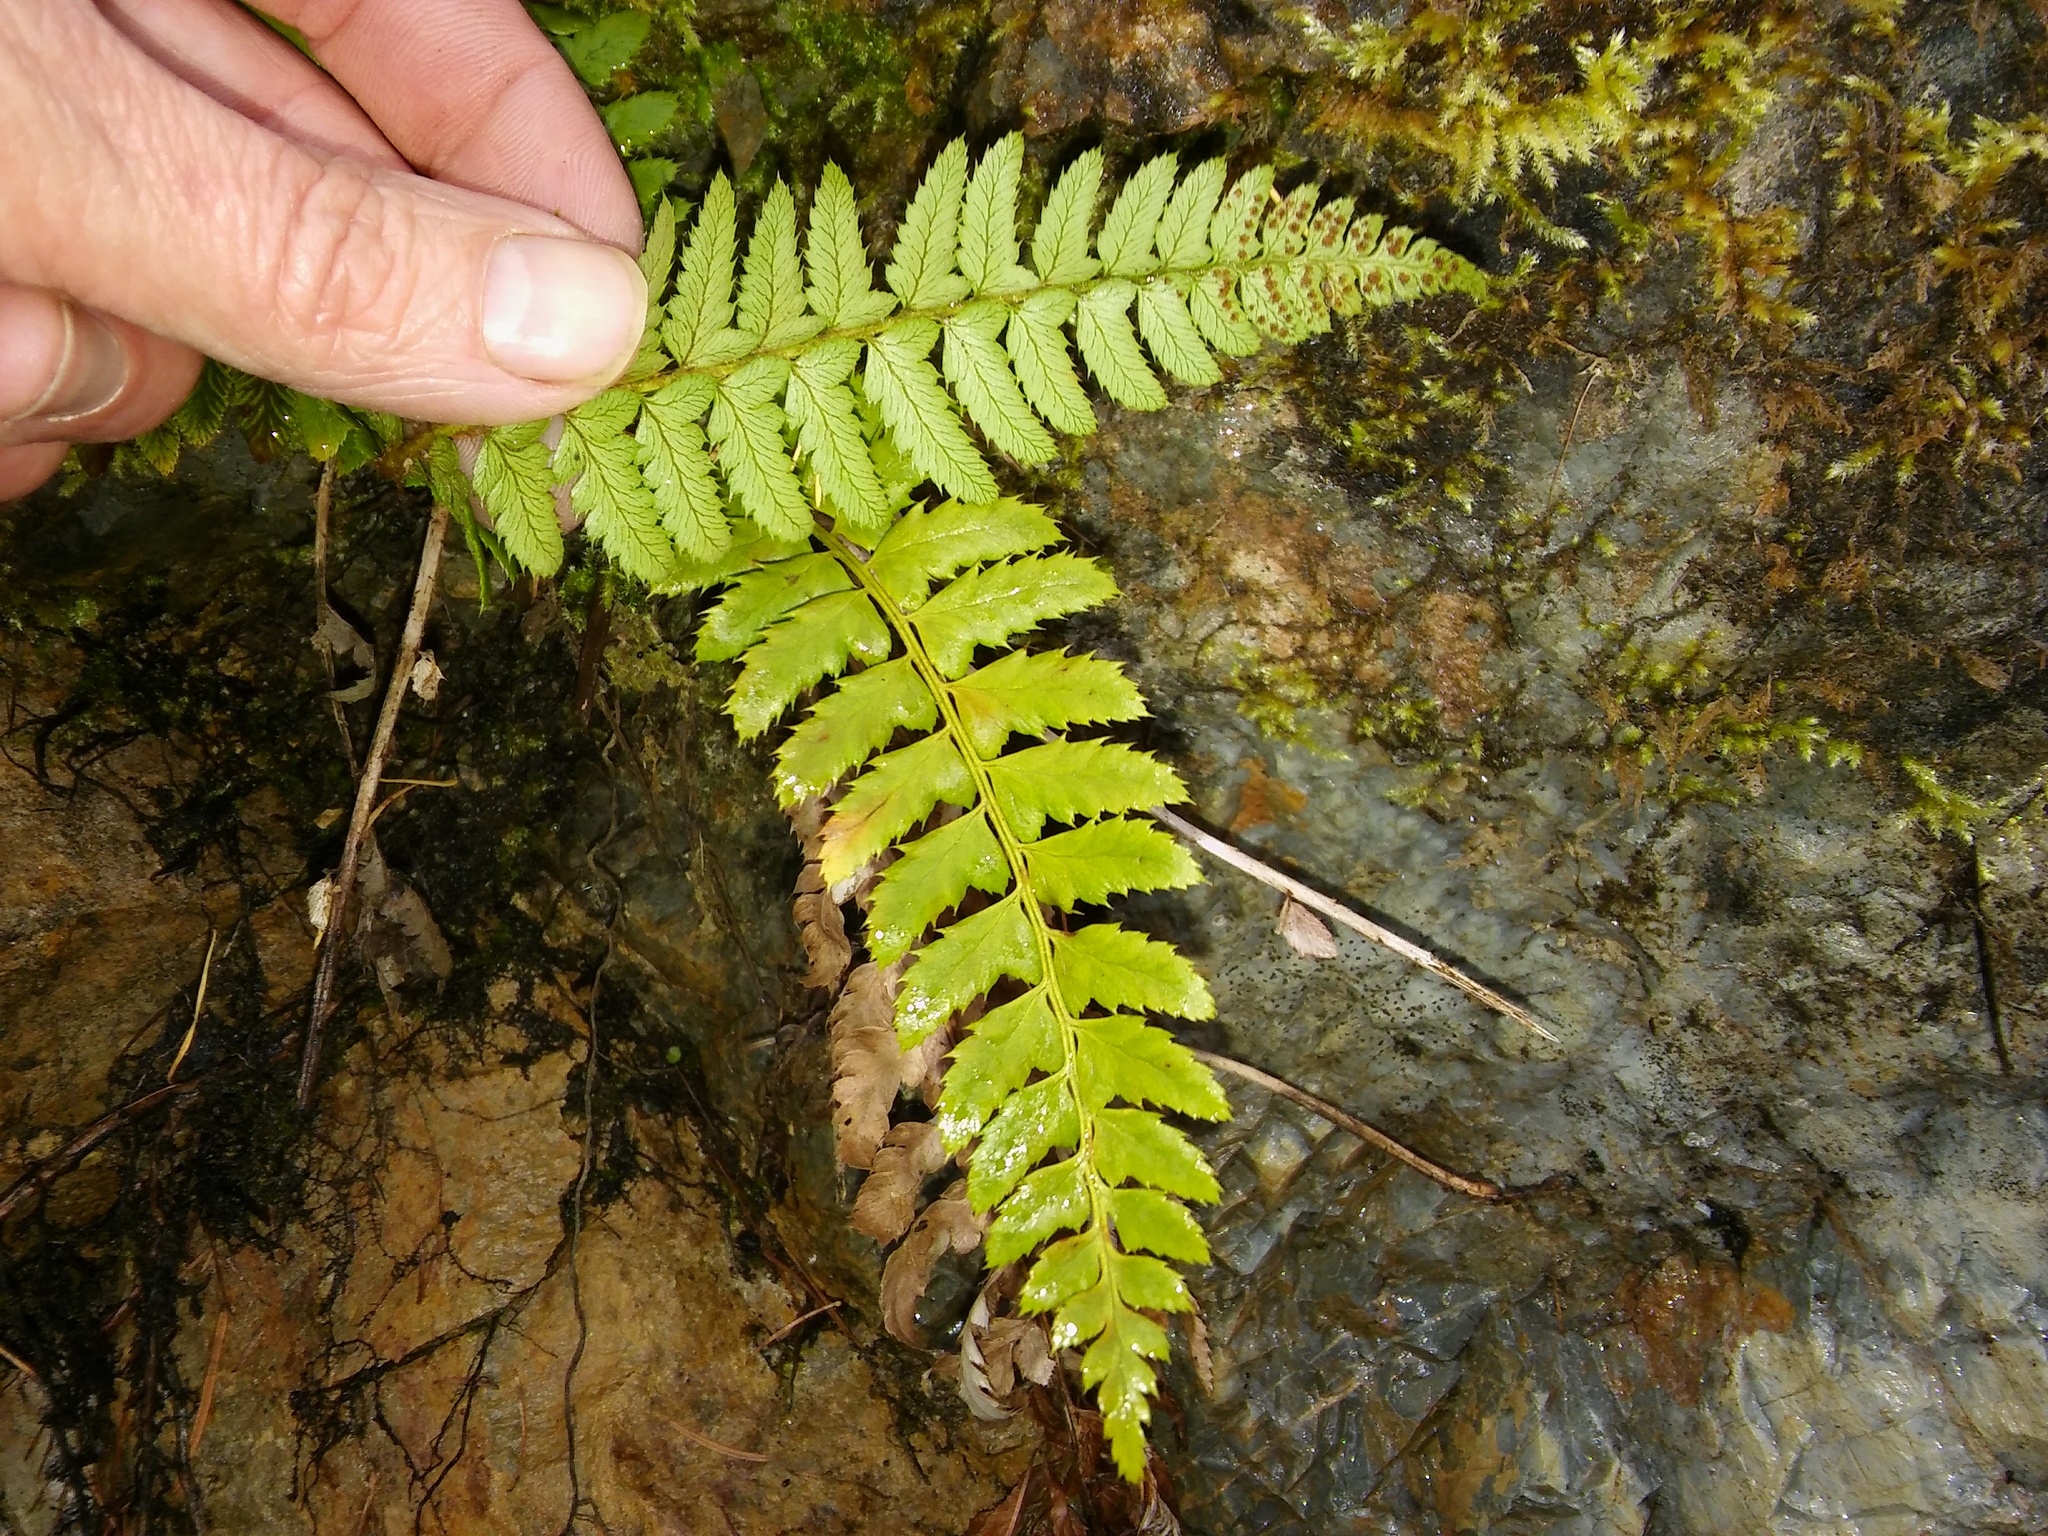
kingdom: Plantae
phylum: Tracheophyta
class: Polypodiopsida
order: Polypodiales
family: Dryopteridaceae
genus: Polystichum
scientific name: Polystichum aculeatum
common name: Hard shield-fern
